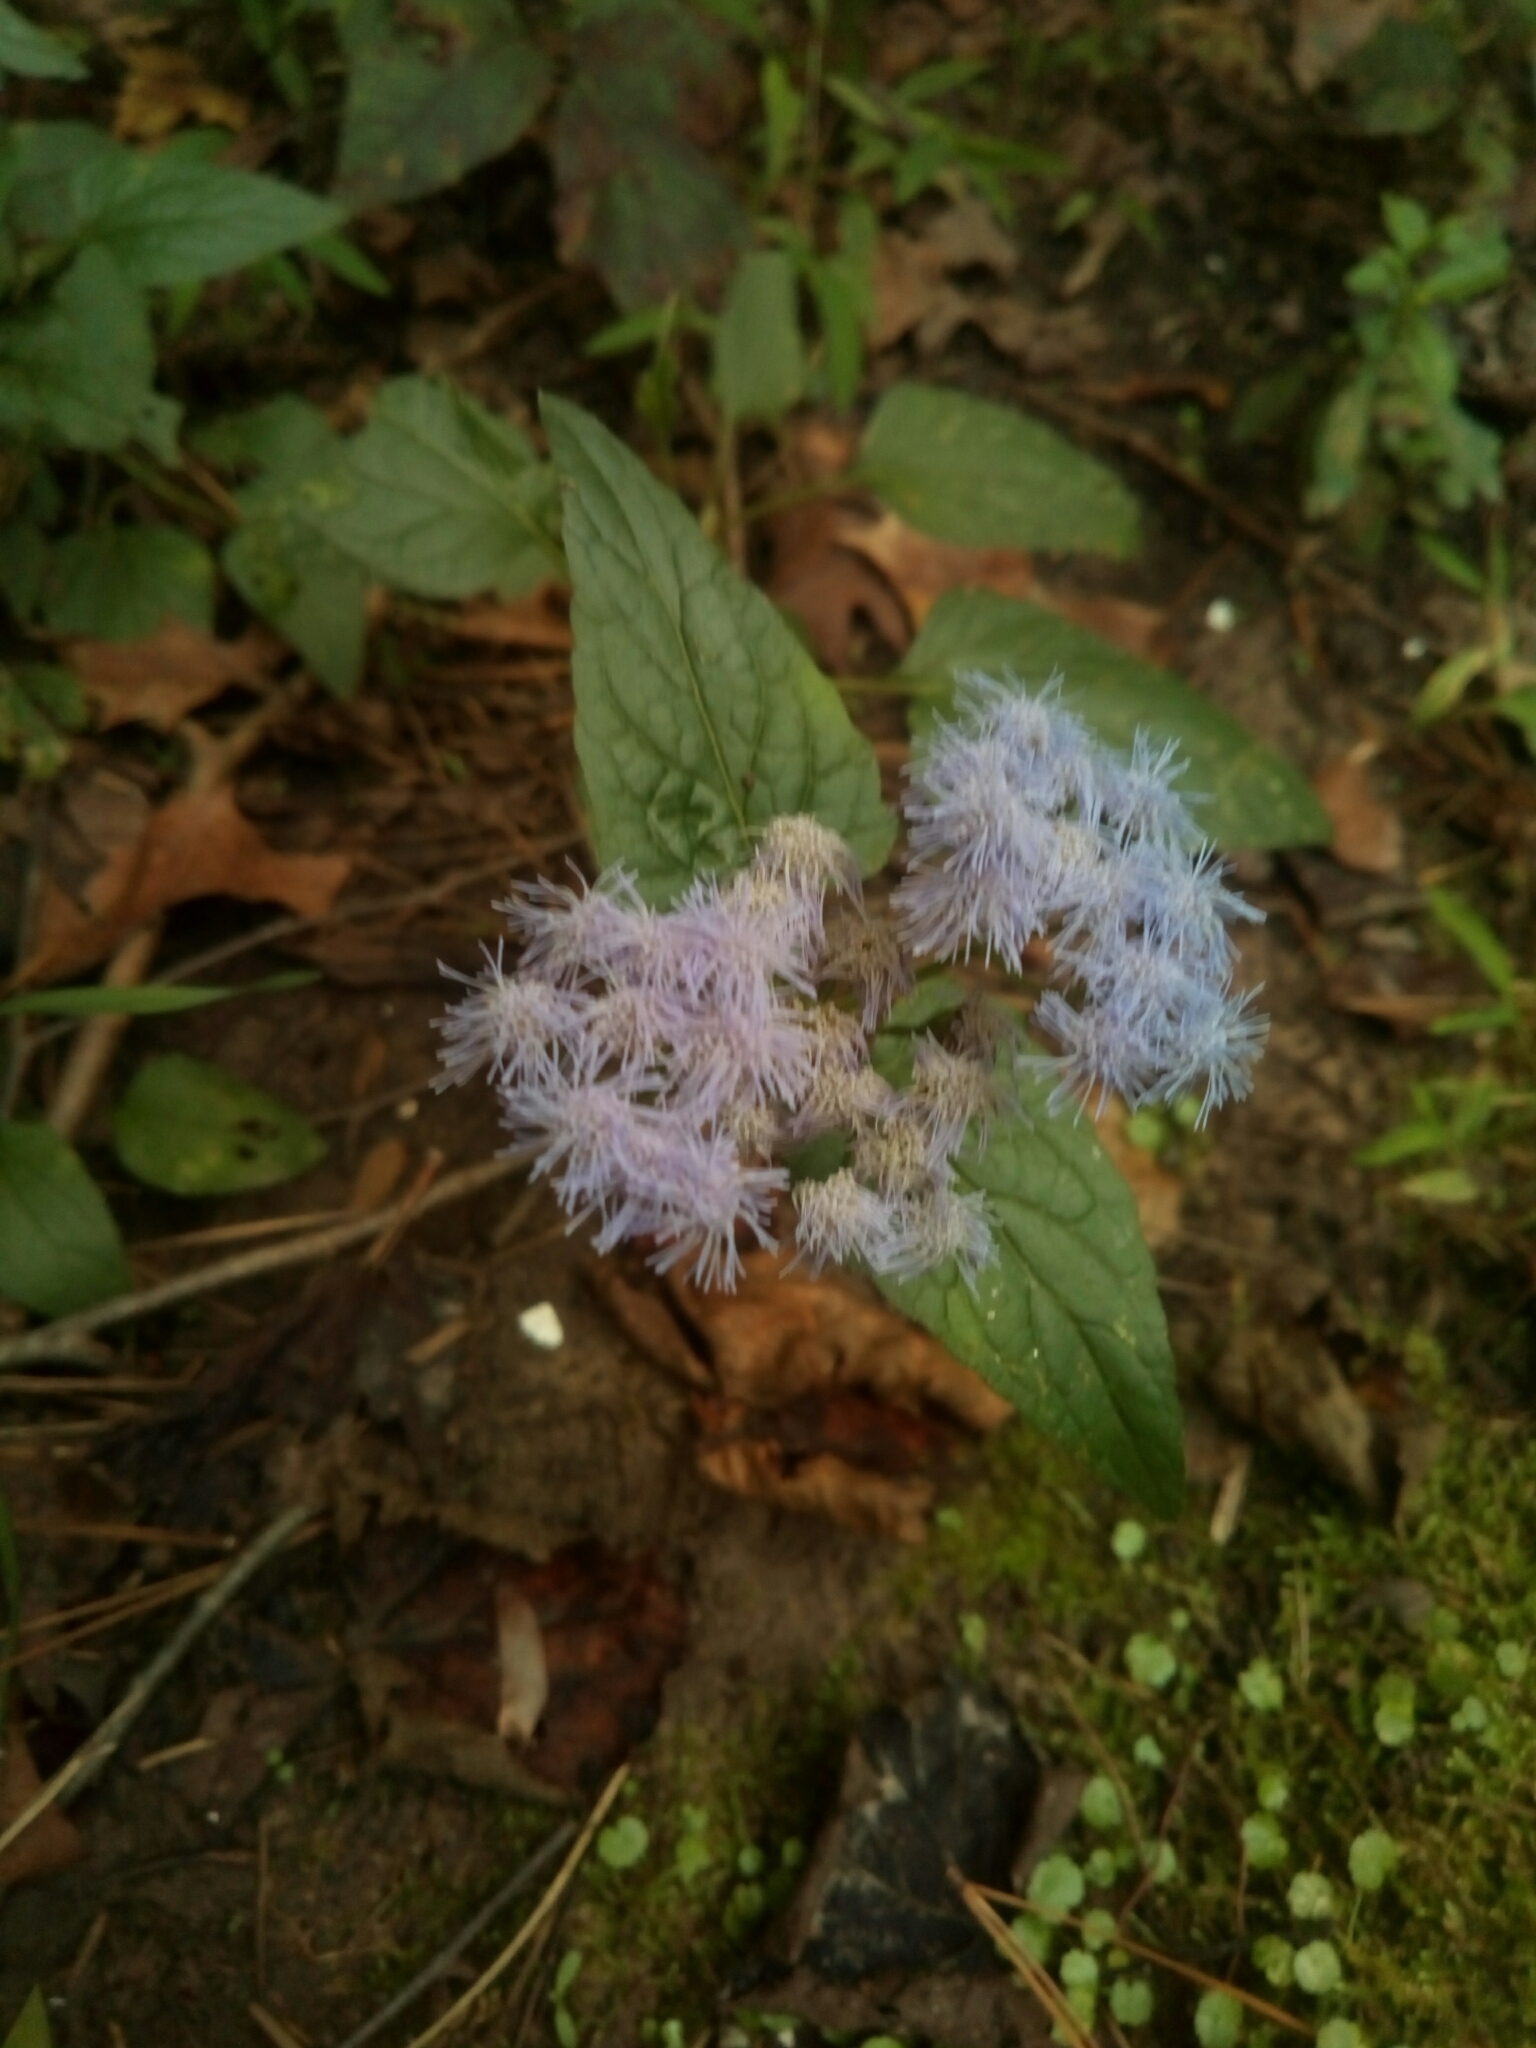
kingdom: Plantae
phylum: Tracheophyta
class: Magnoliopsida
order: Asterales
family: Asteraceae
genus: Conoclinium
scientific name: Conoclinium coelestinum
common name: Blue mistflower
